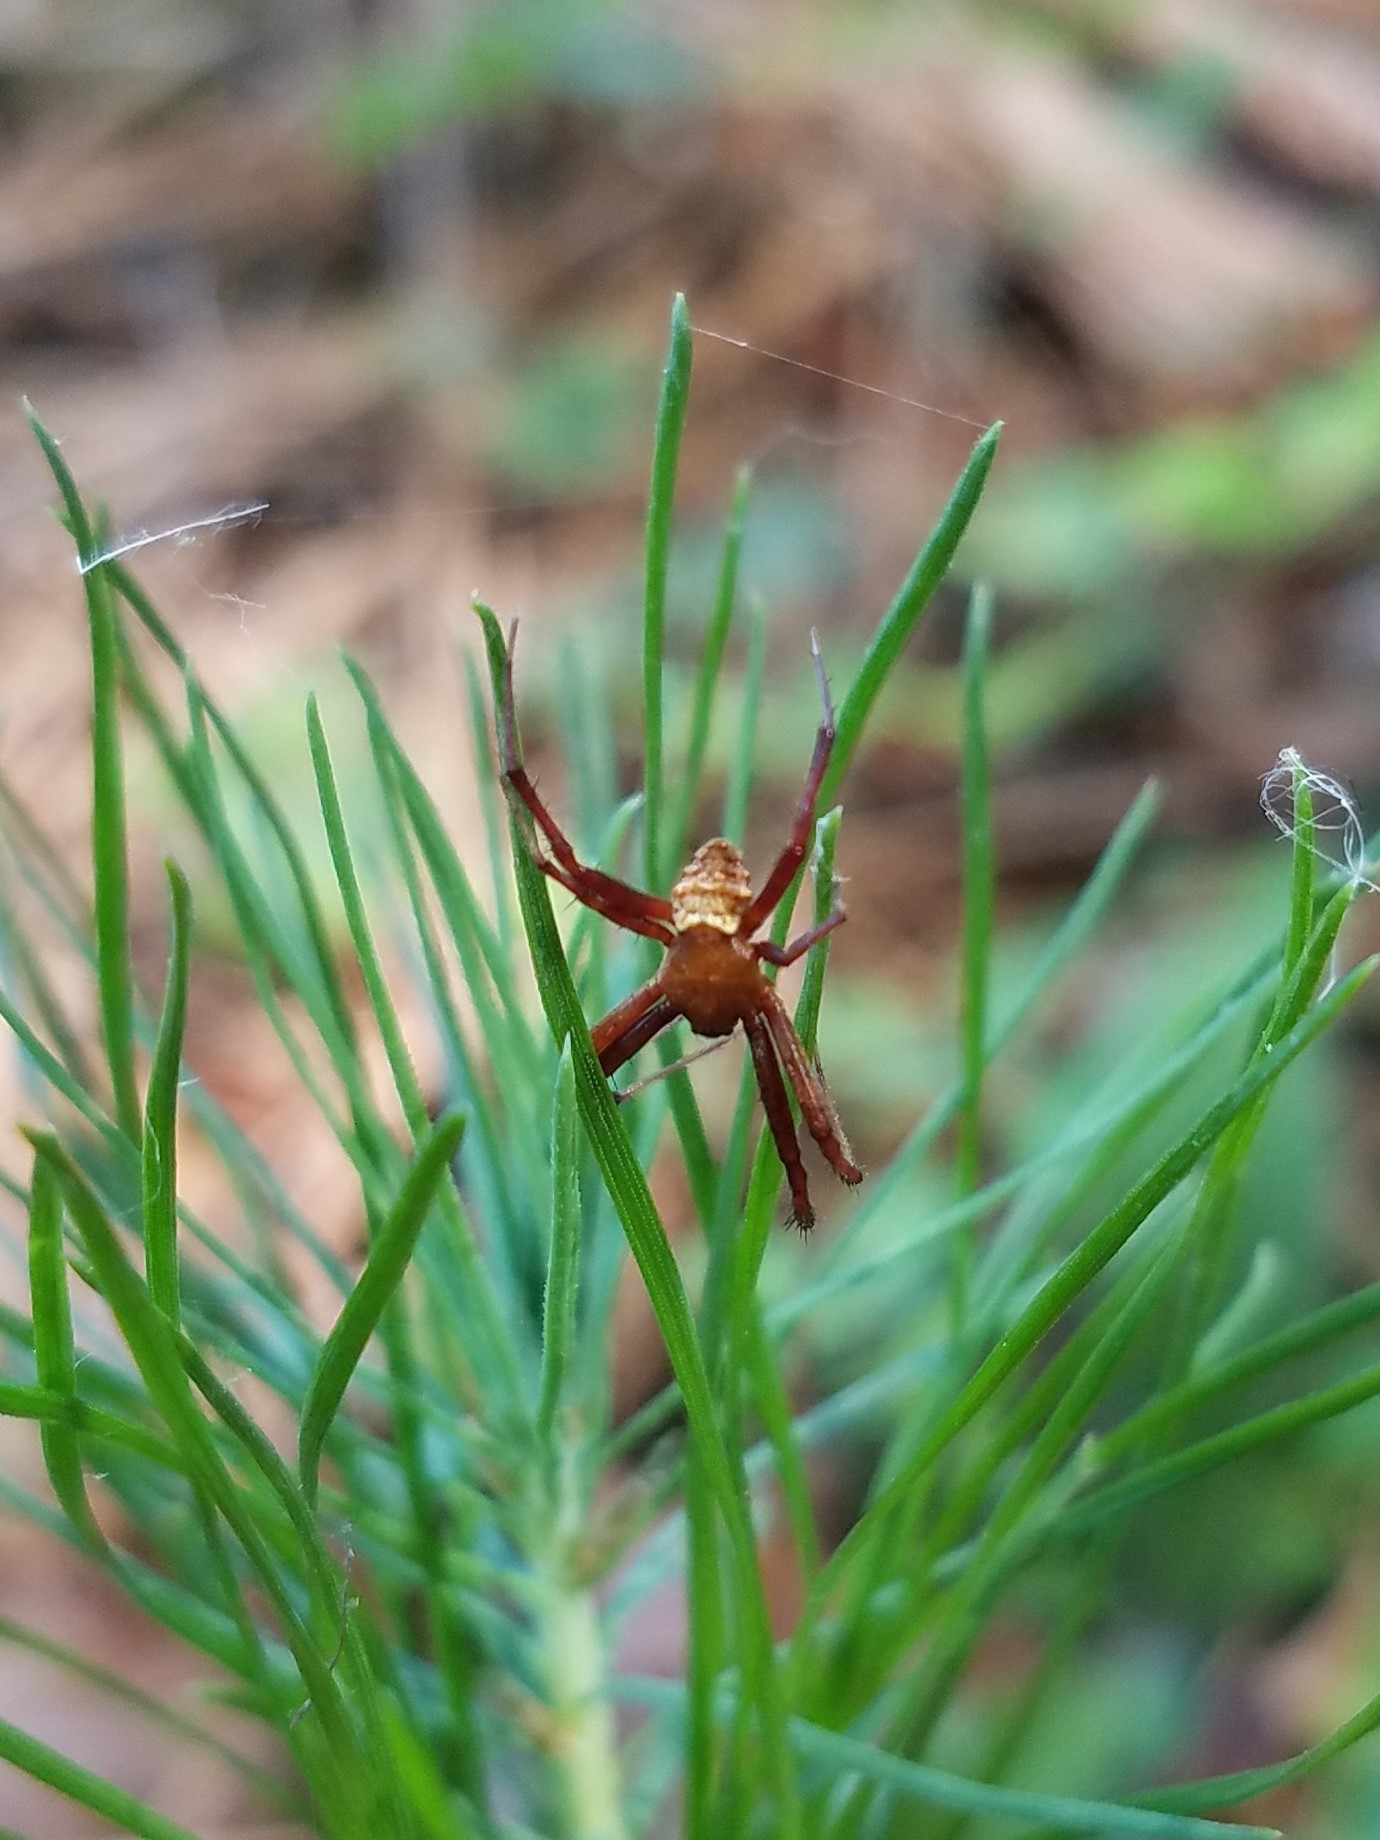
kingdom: Animalia
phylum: Arthropoda
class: Arachnida
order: Araneae
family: Araneidae
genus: Gea
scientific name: Gea heptagon
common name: Orb weavers
